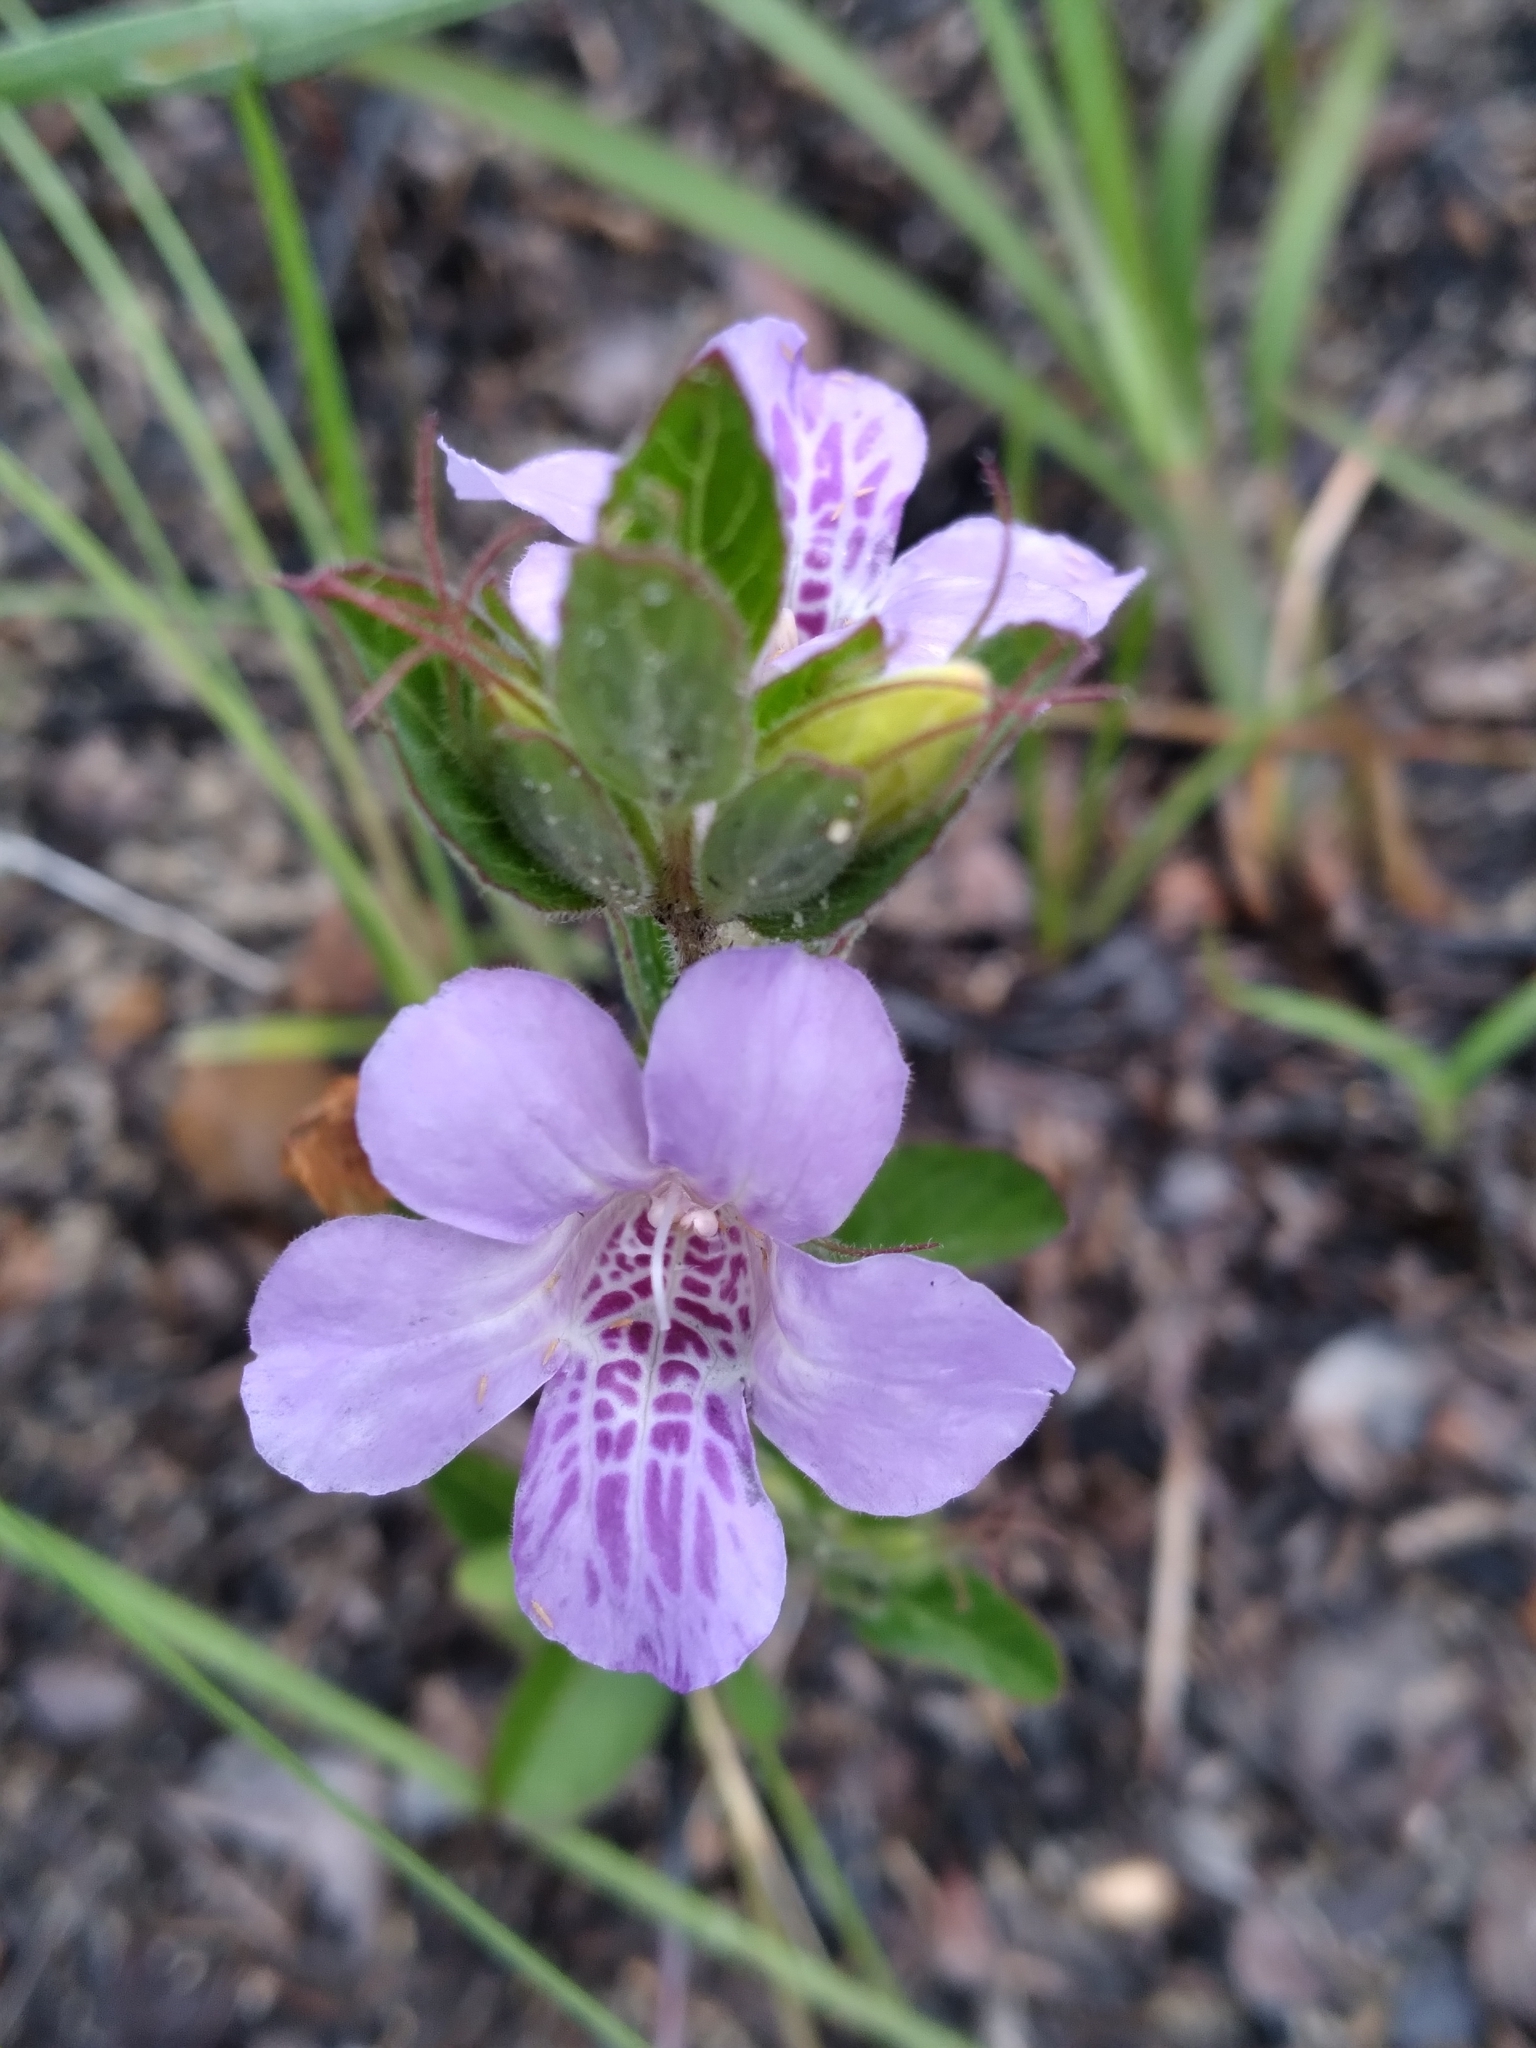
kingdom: Plantae
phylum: Tracheophyta
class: Magnoliopsida
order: Lamiales
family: Acanthaceae
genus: Dyschoriste
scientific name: Dyschoriste oblongifolia
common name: Blue twinflower
